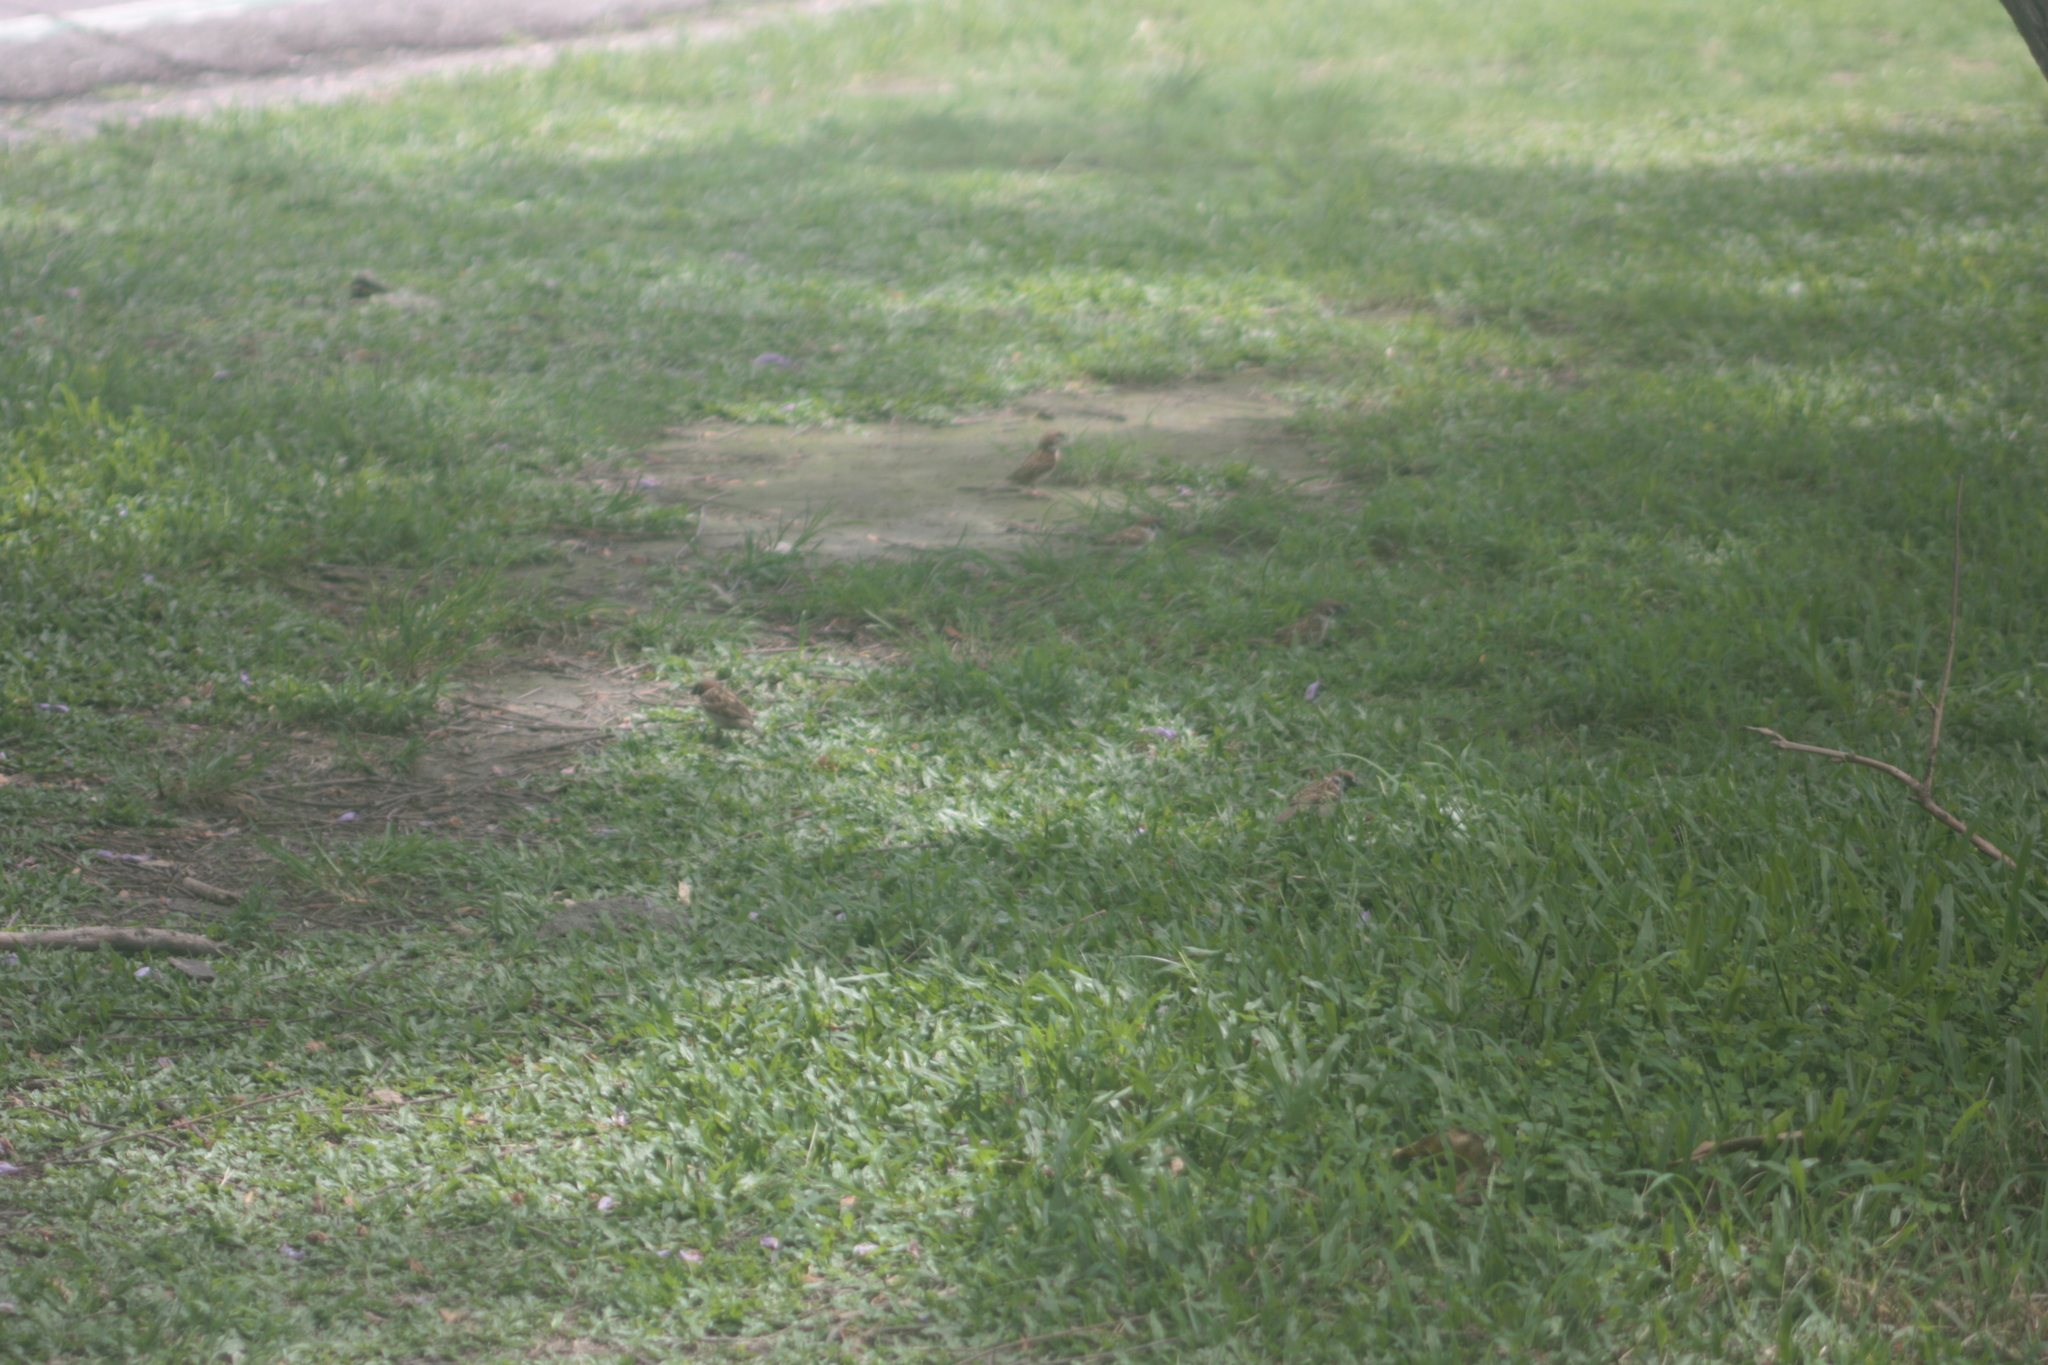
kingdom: Animalia
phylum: Chordata
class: Aves
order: Passeriformes
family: Passeridae
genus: Passer
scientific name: Passer montanus
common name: Eurasian tree sparrow
